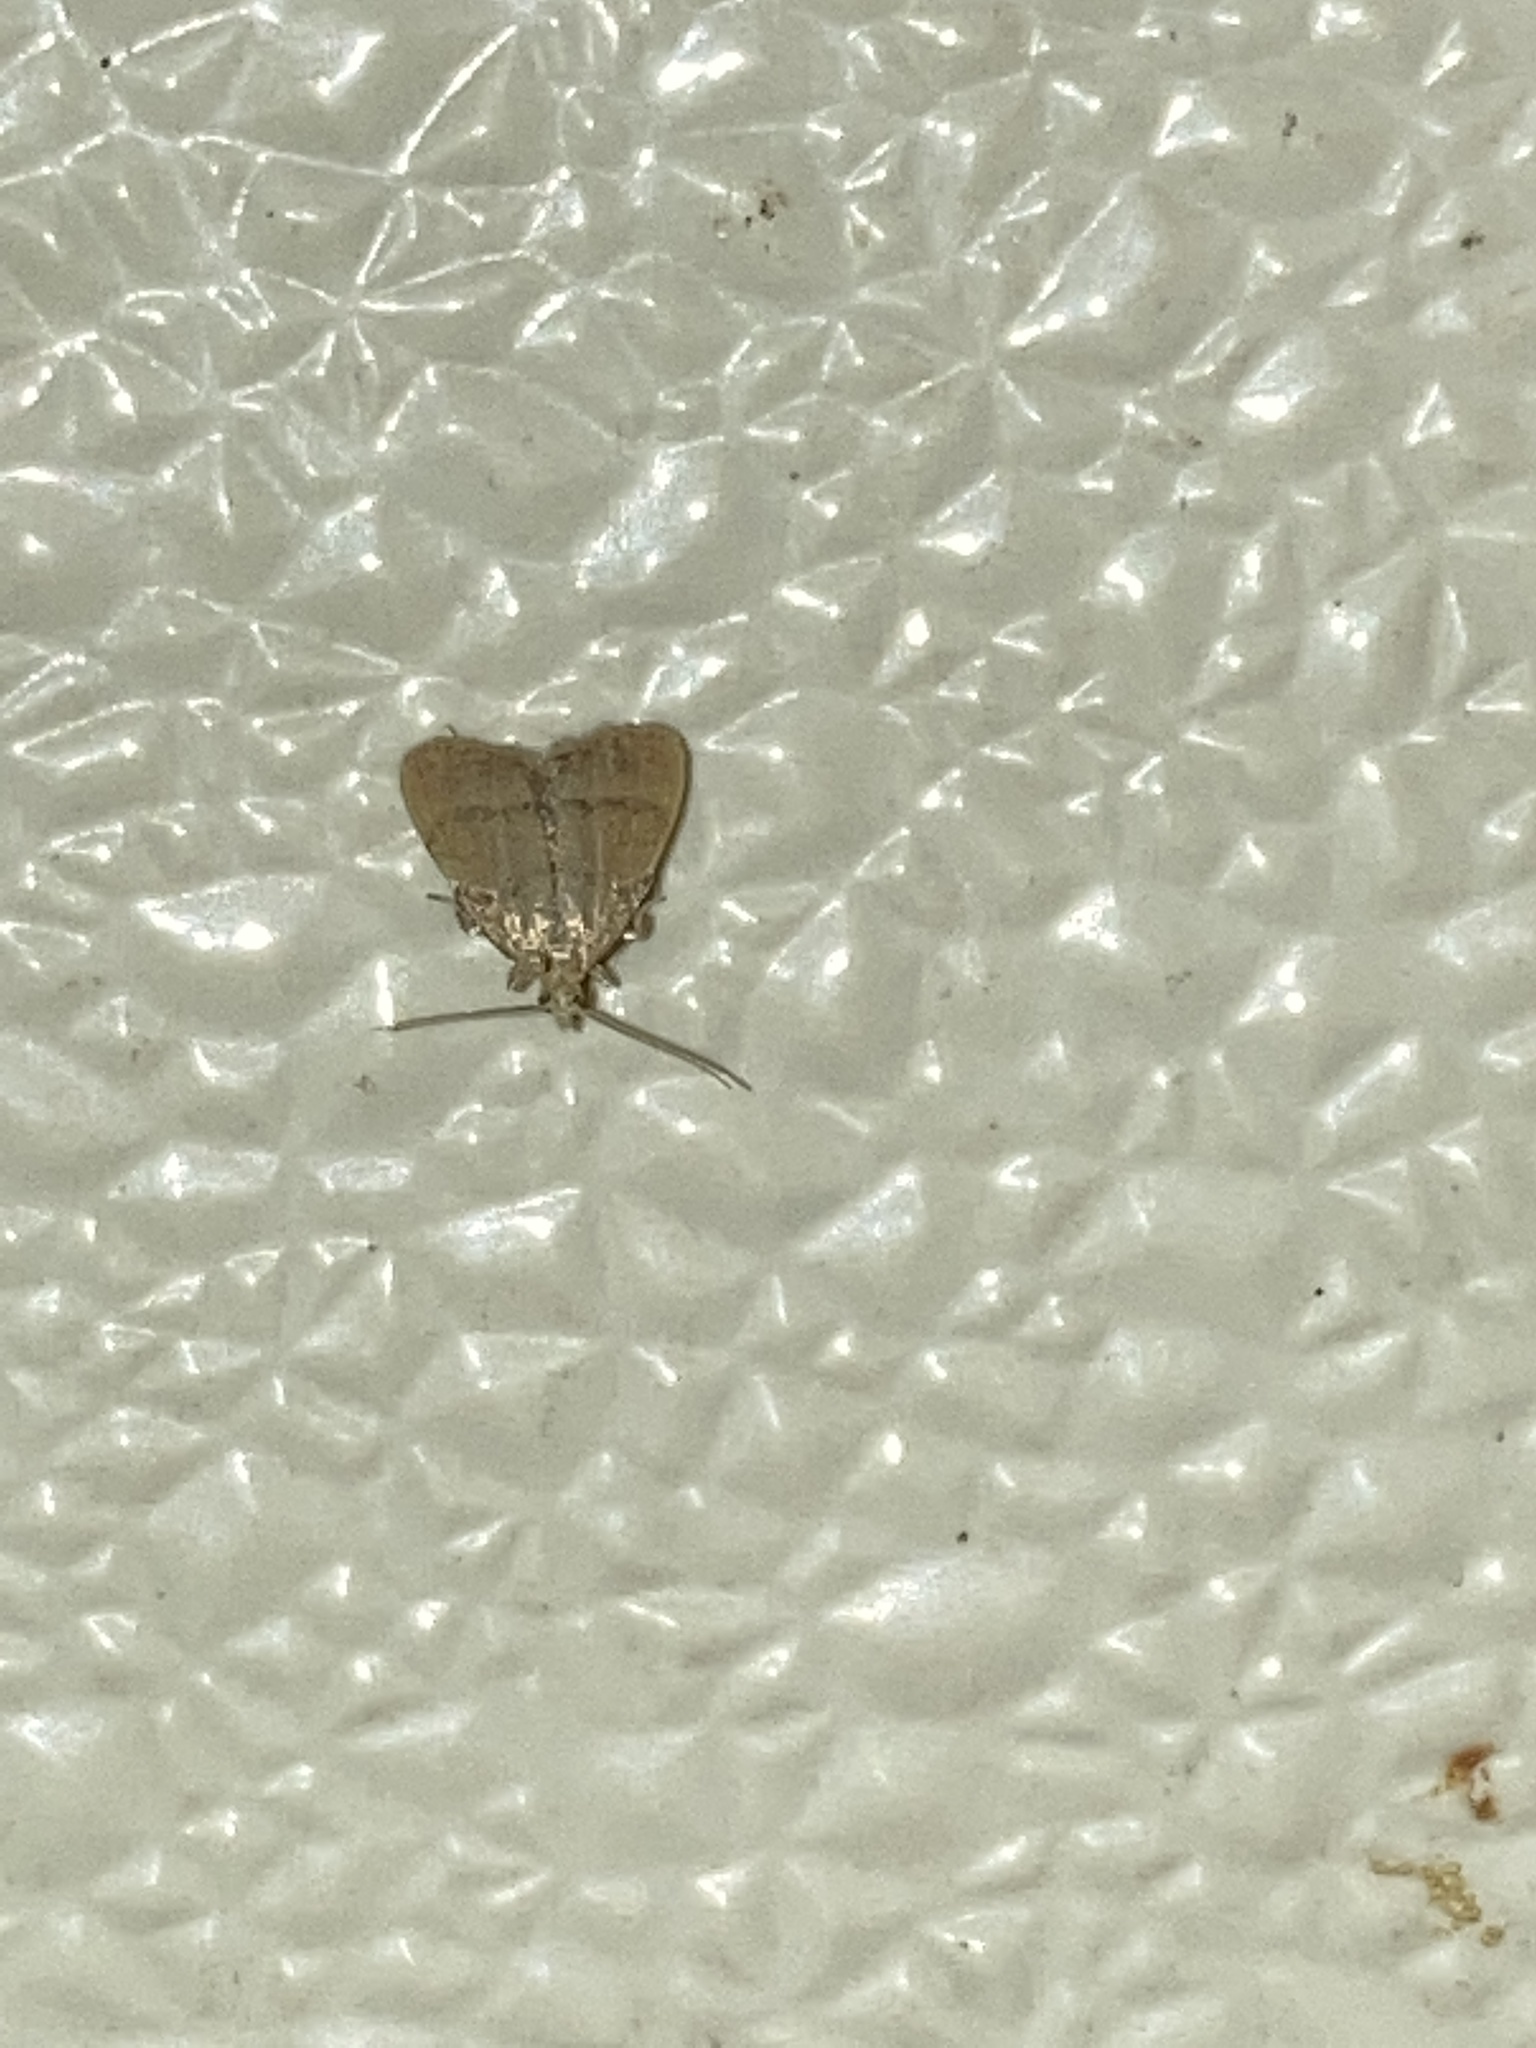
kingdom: Animalia
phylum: Arthropoda
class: Insecta
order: Lepidoptera
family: Pyralidae
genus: Condylolomia
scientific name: Condylolomia participialis
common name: Drab condylolomia moth
